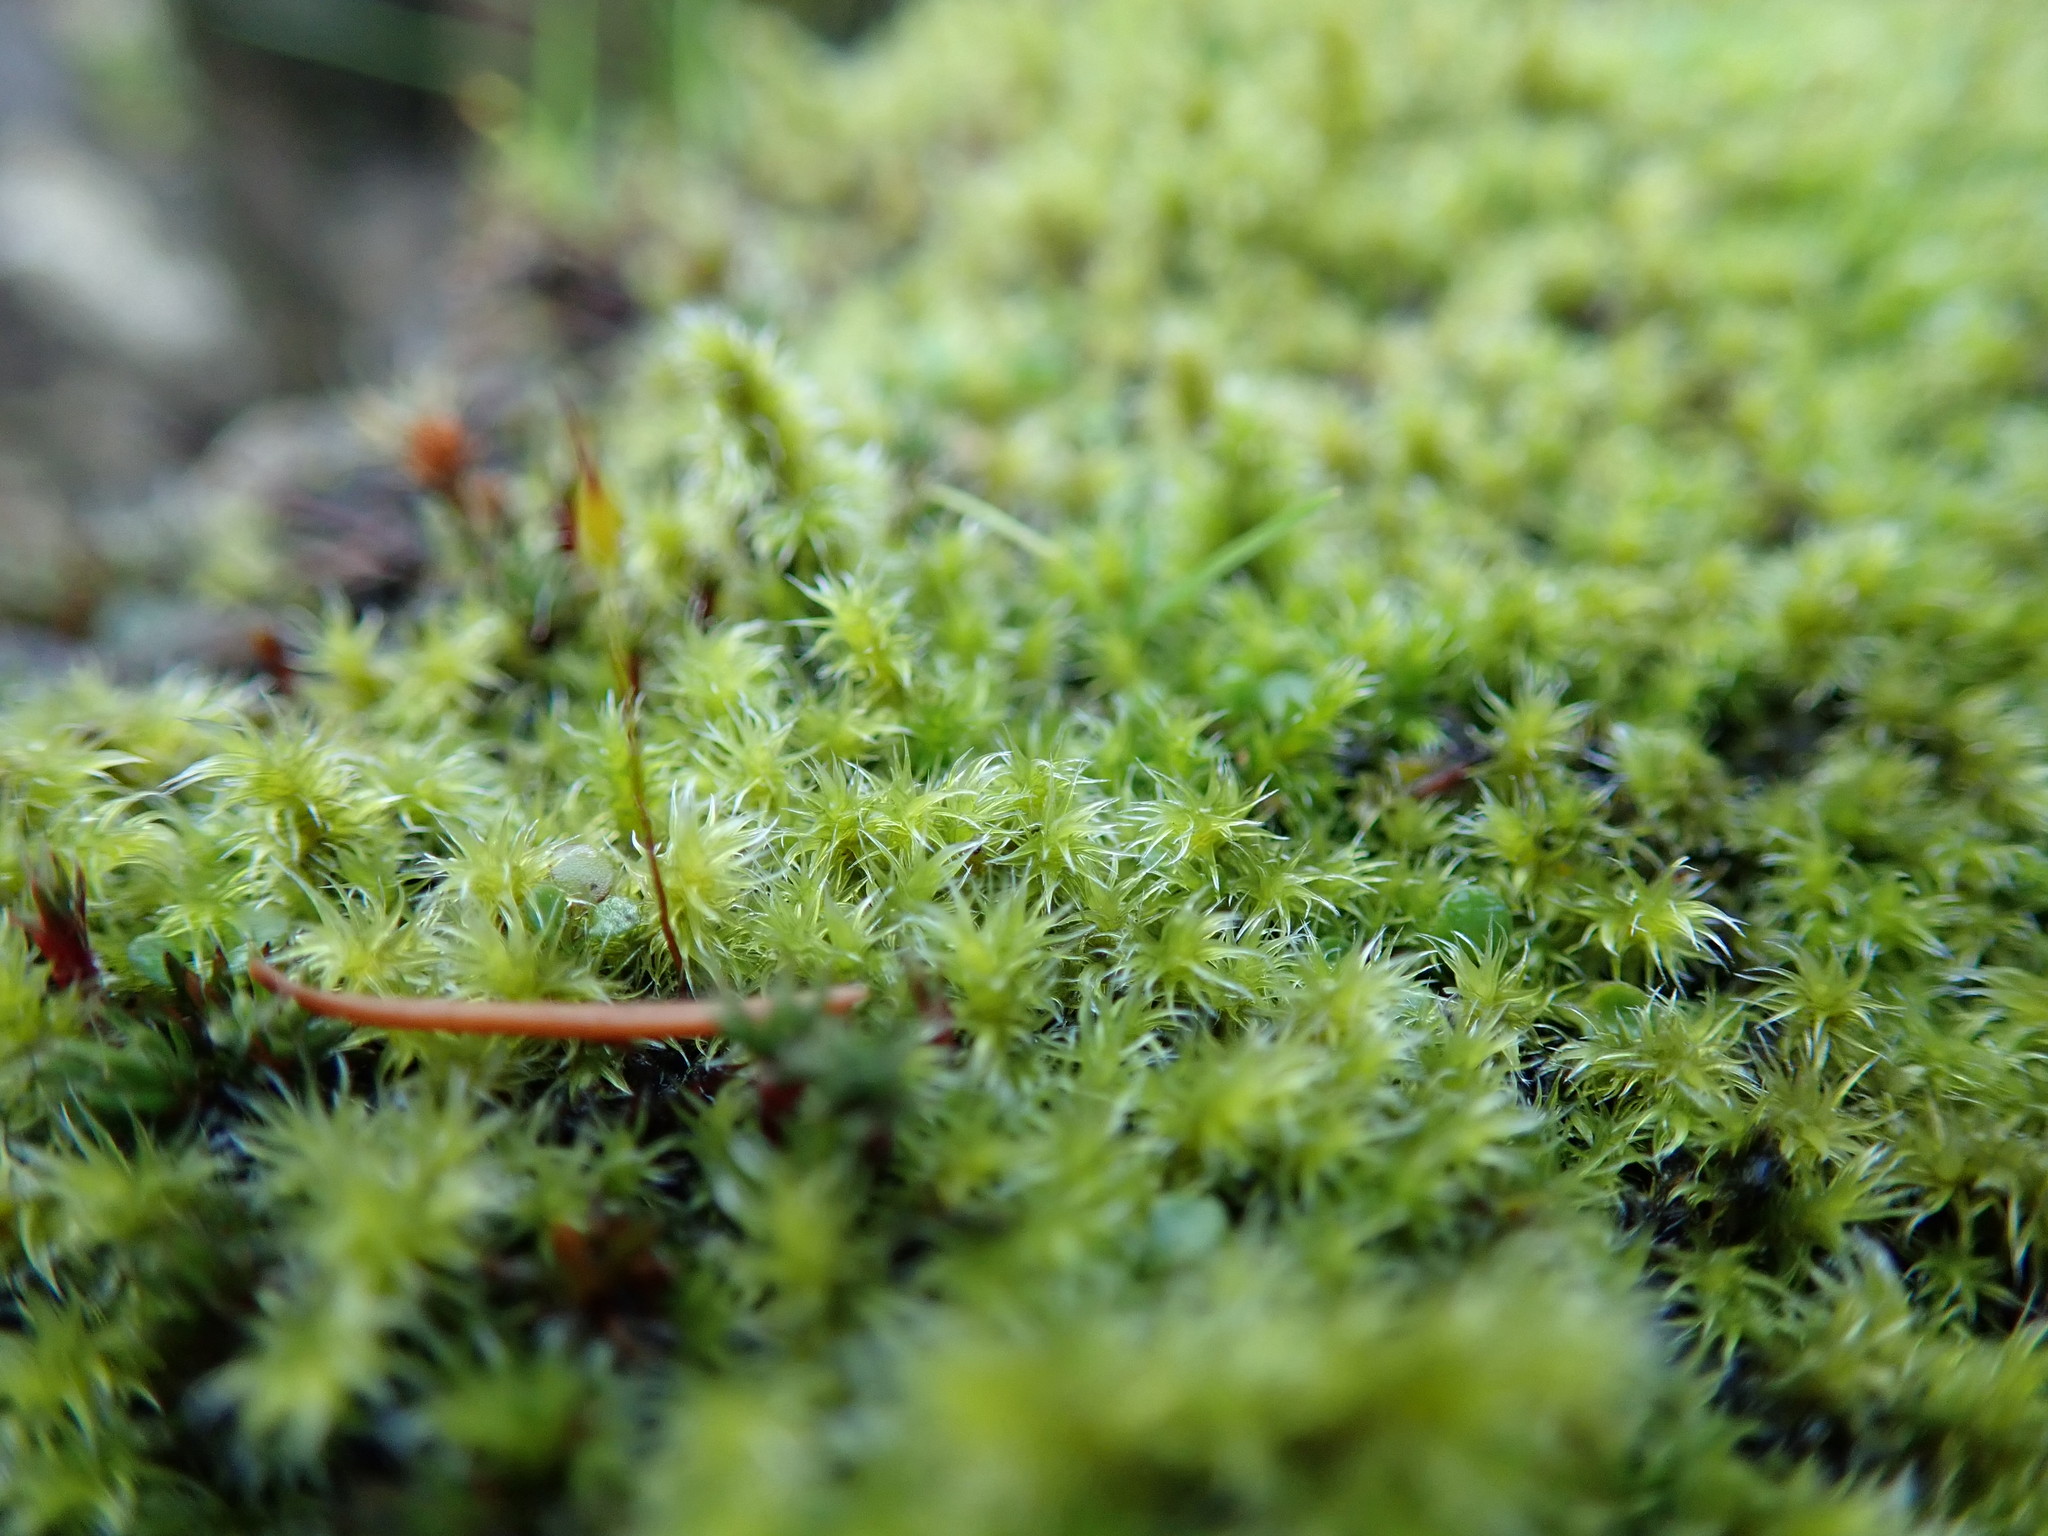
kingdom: Plantae
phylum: Bryophyta
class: Bryopsida
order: Grimmiales
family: Grimmiaceae
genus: Niphotrichum
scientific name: Niphotrichum elongatum
